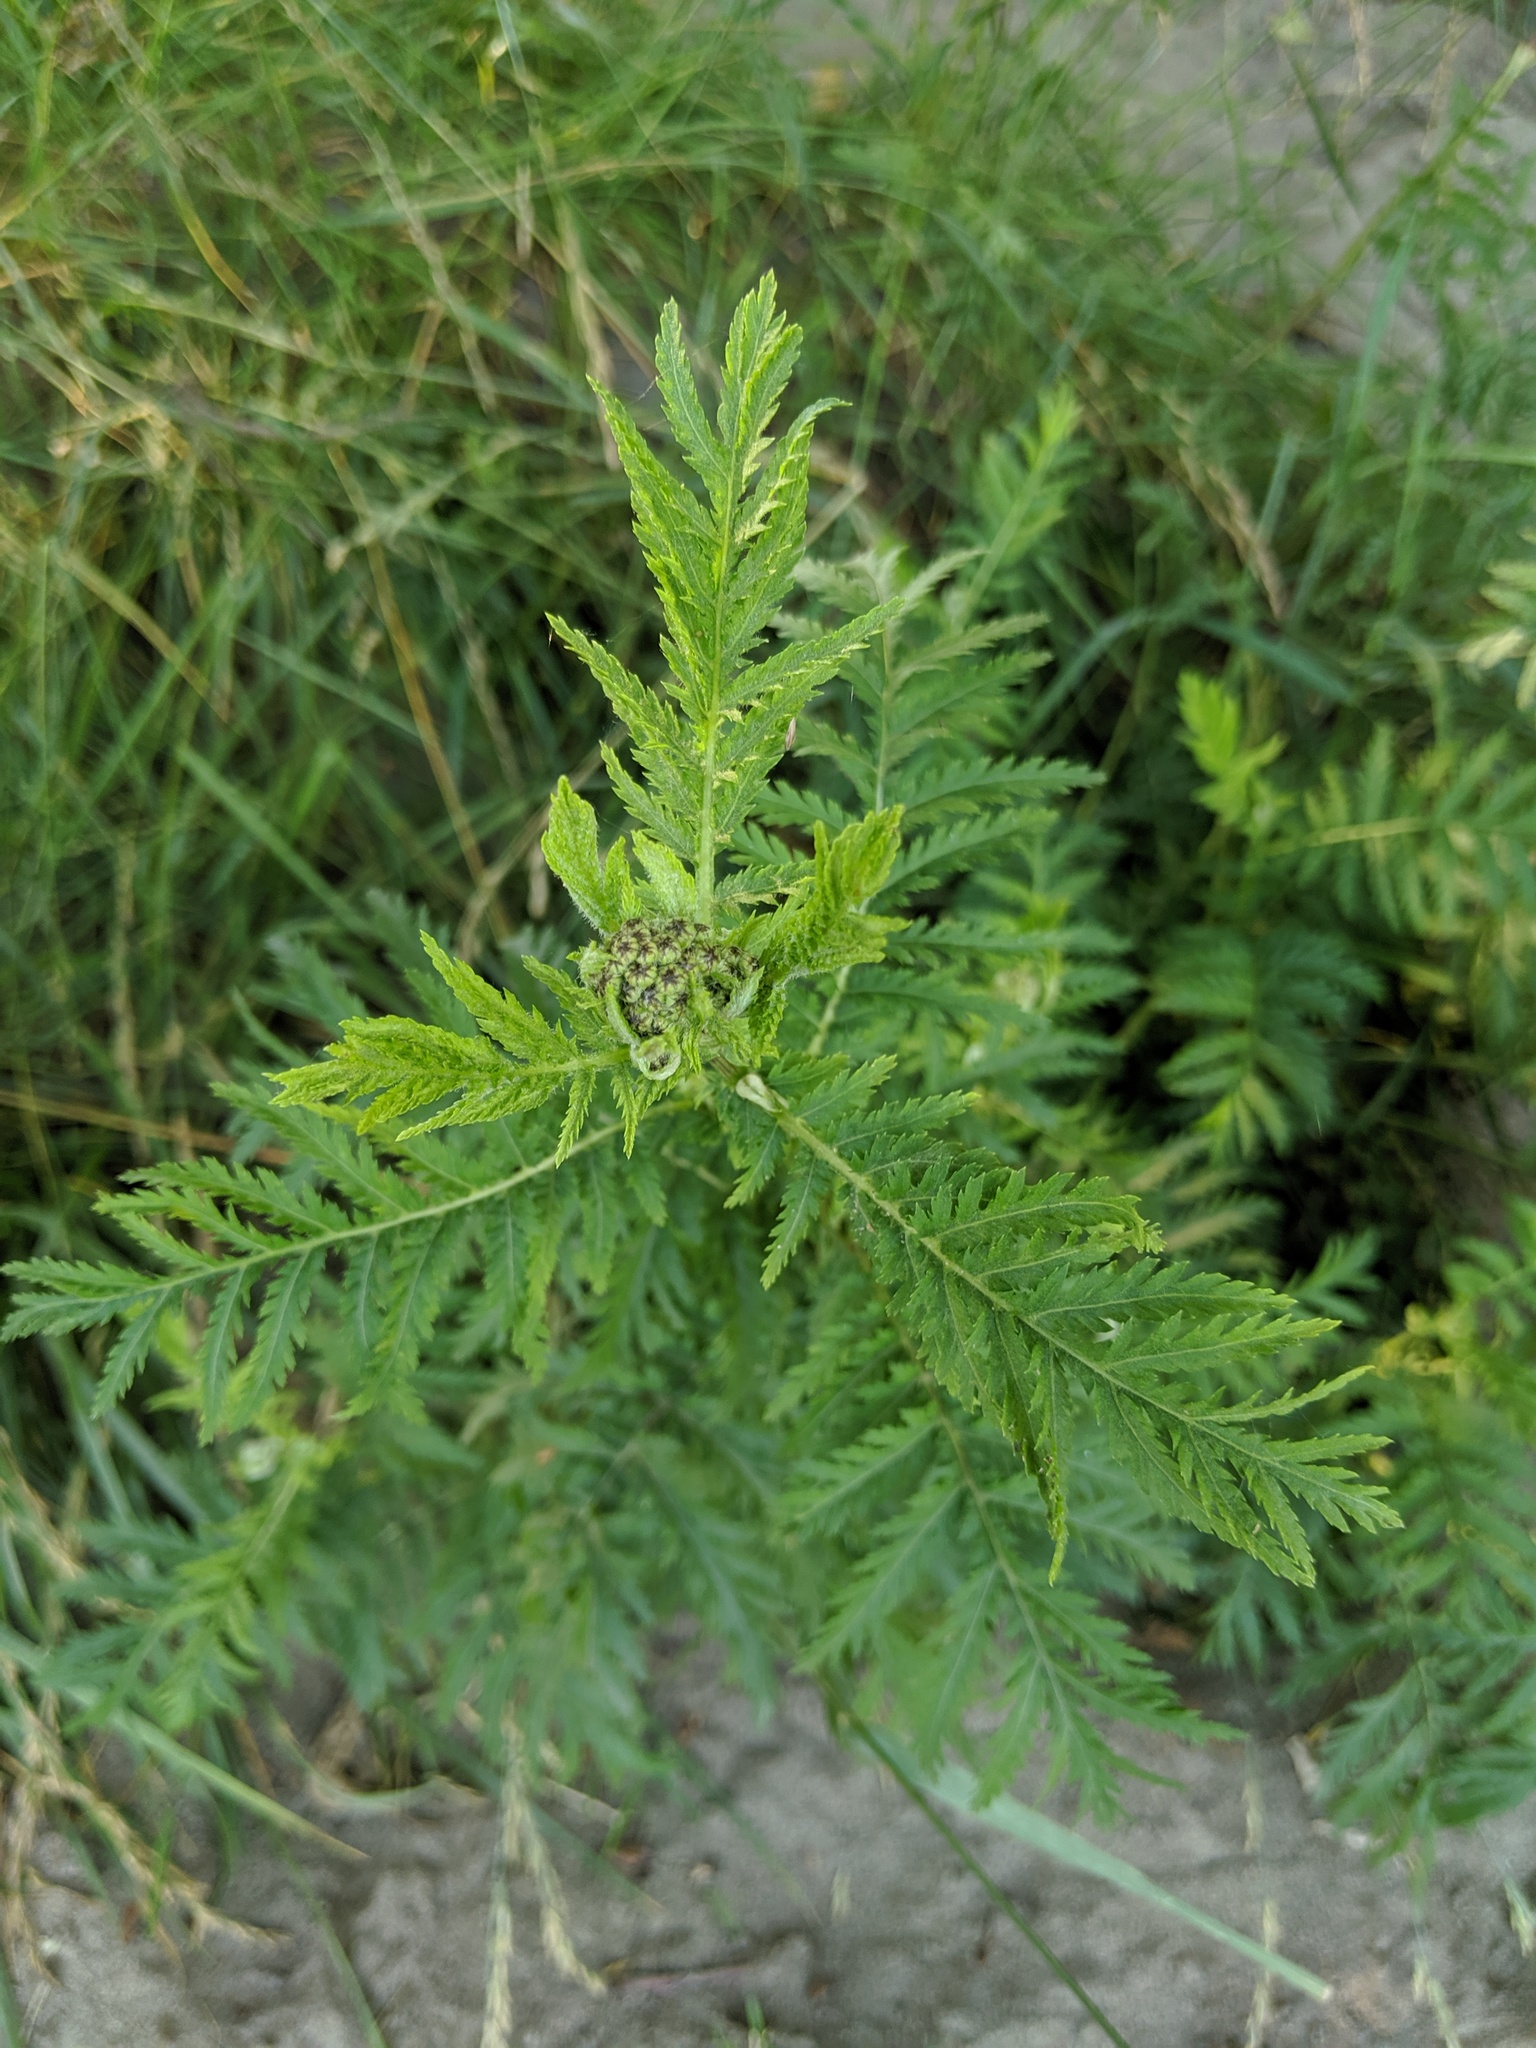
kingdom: Plantae
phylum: Tracheophyta
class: Magnoliopsida
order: Asterales
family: Asteraceae
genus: Tanacetum
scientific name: Tanacetum vulgare
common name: Common tansy
